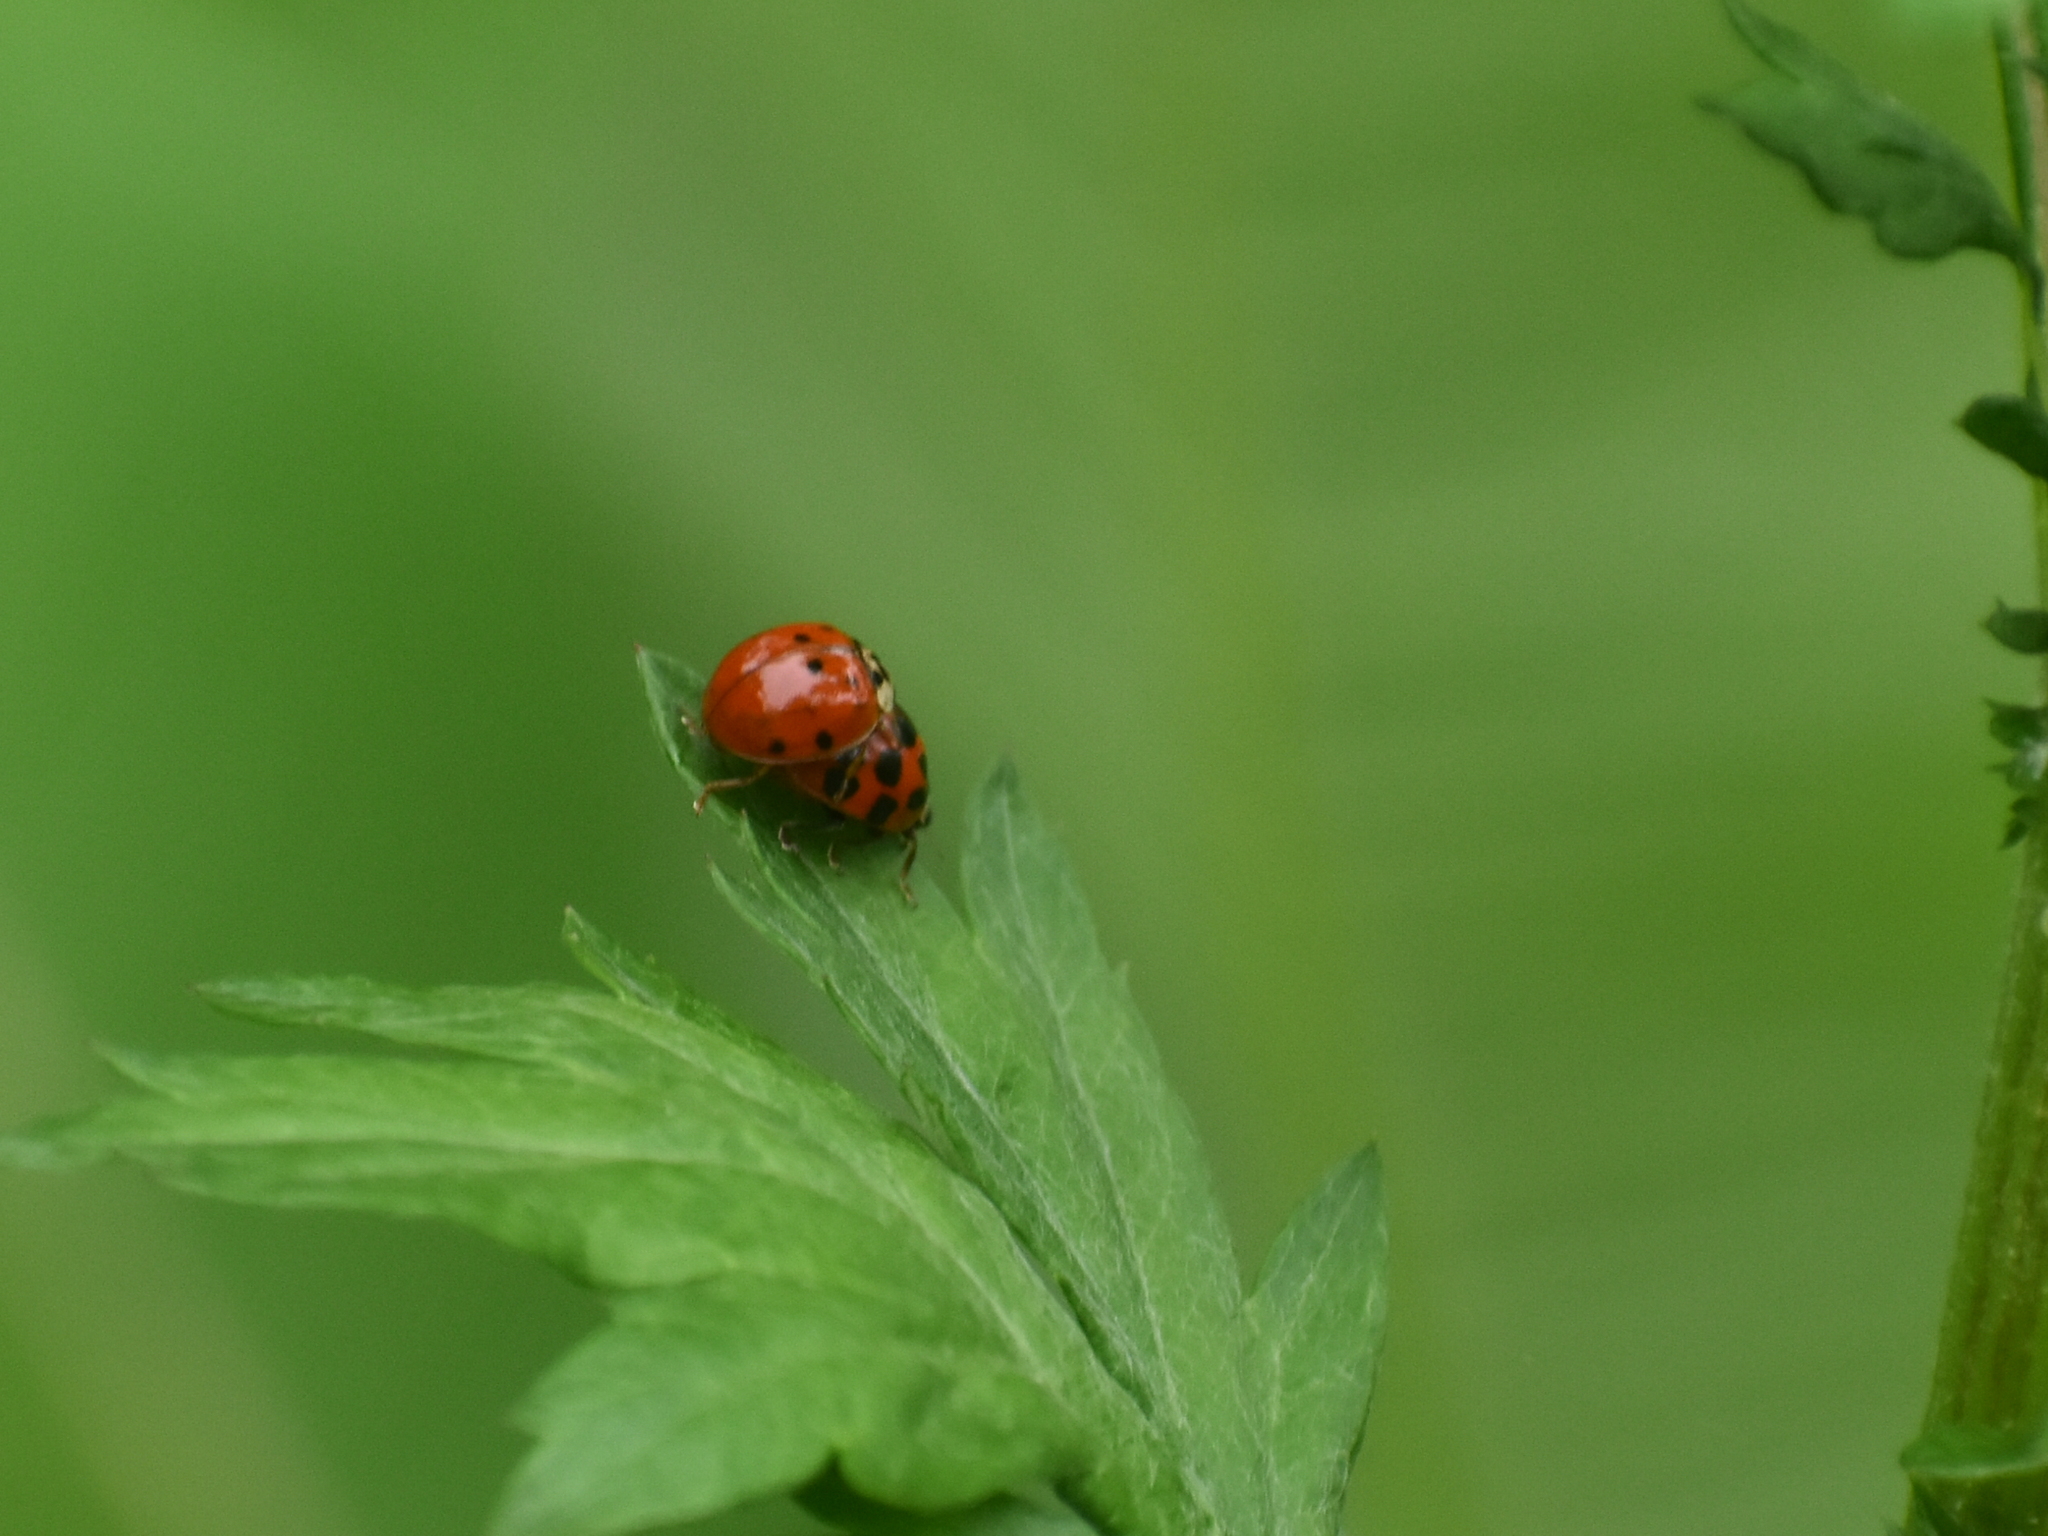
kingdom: Animalia
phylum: Arthropoda
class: Insecta
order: Coleoptera
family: Coccinellidae
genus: Harmonia
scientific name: Harmonia axyridis
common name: Harlequin ladybird
